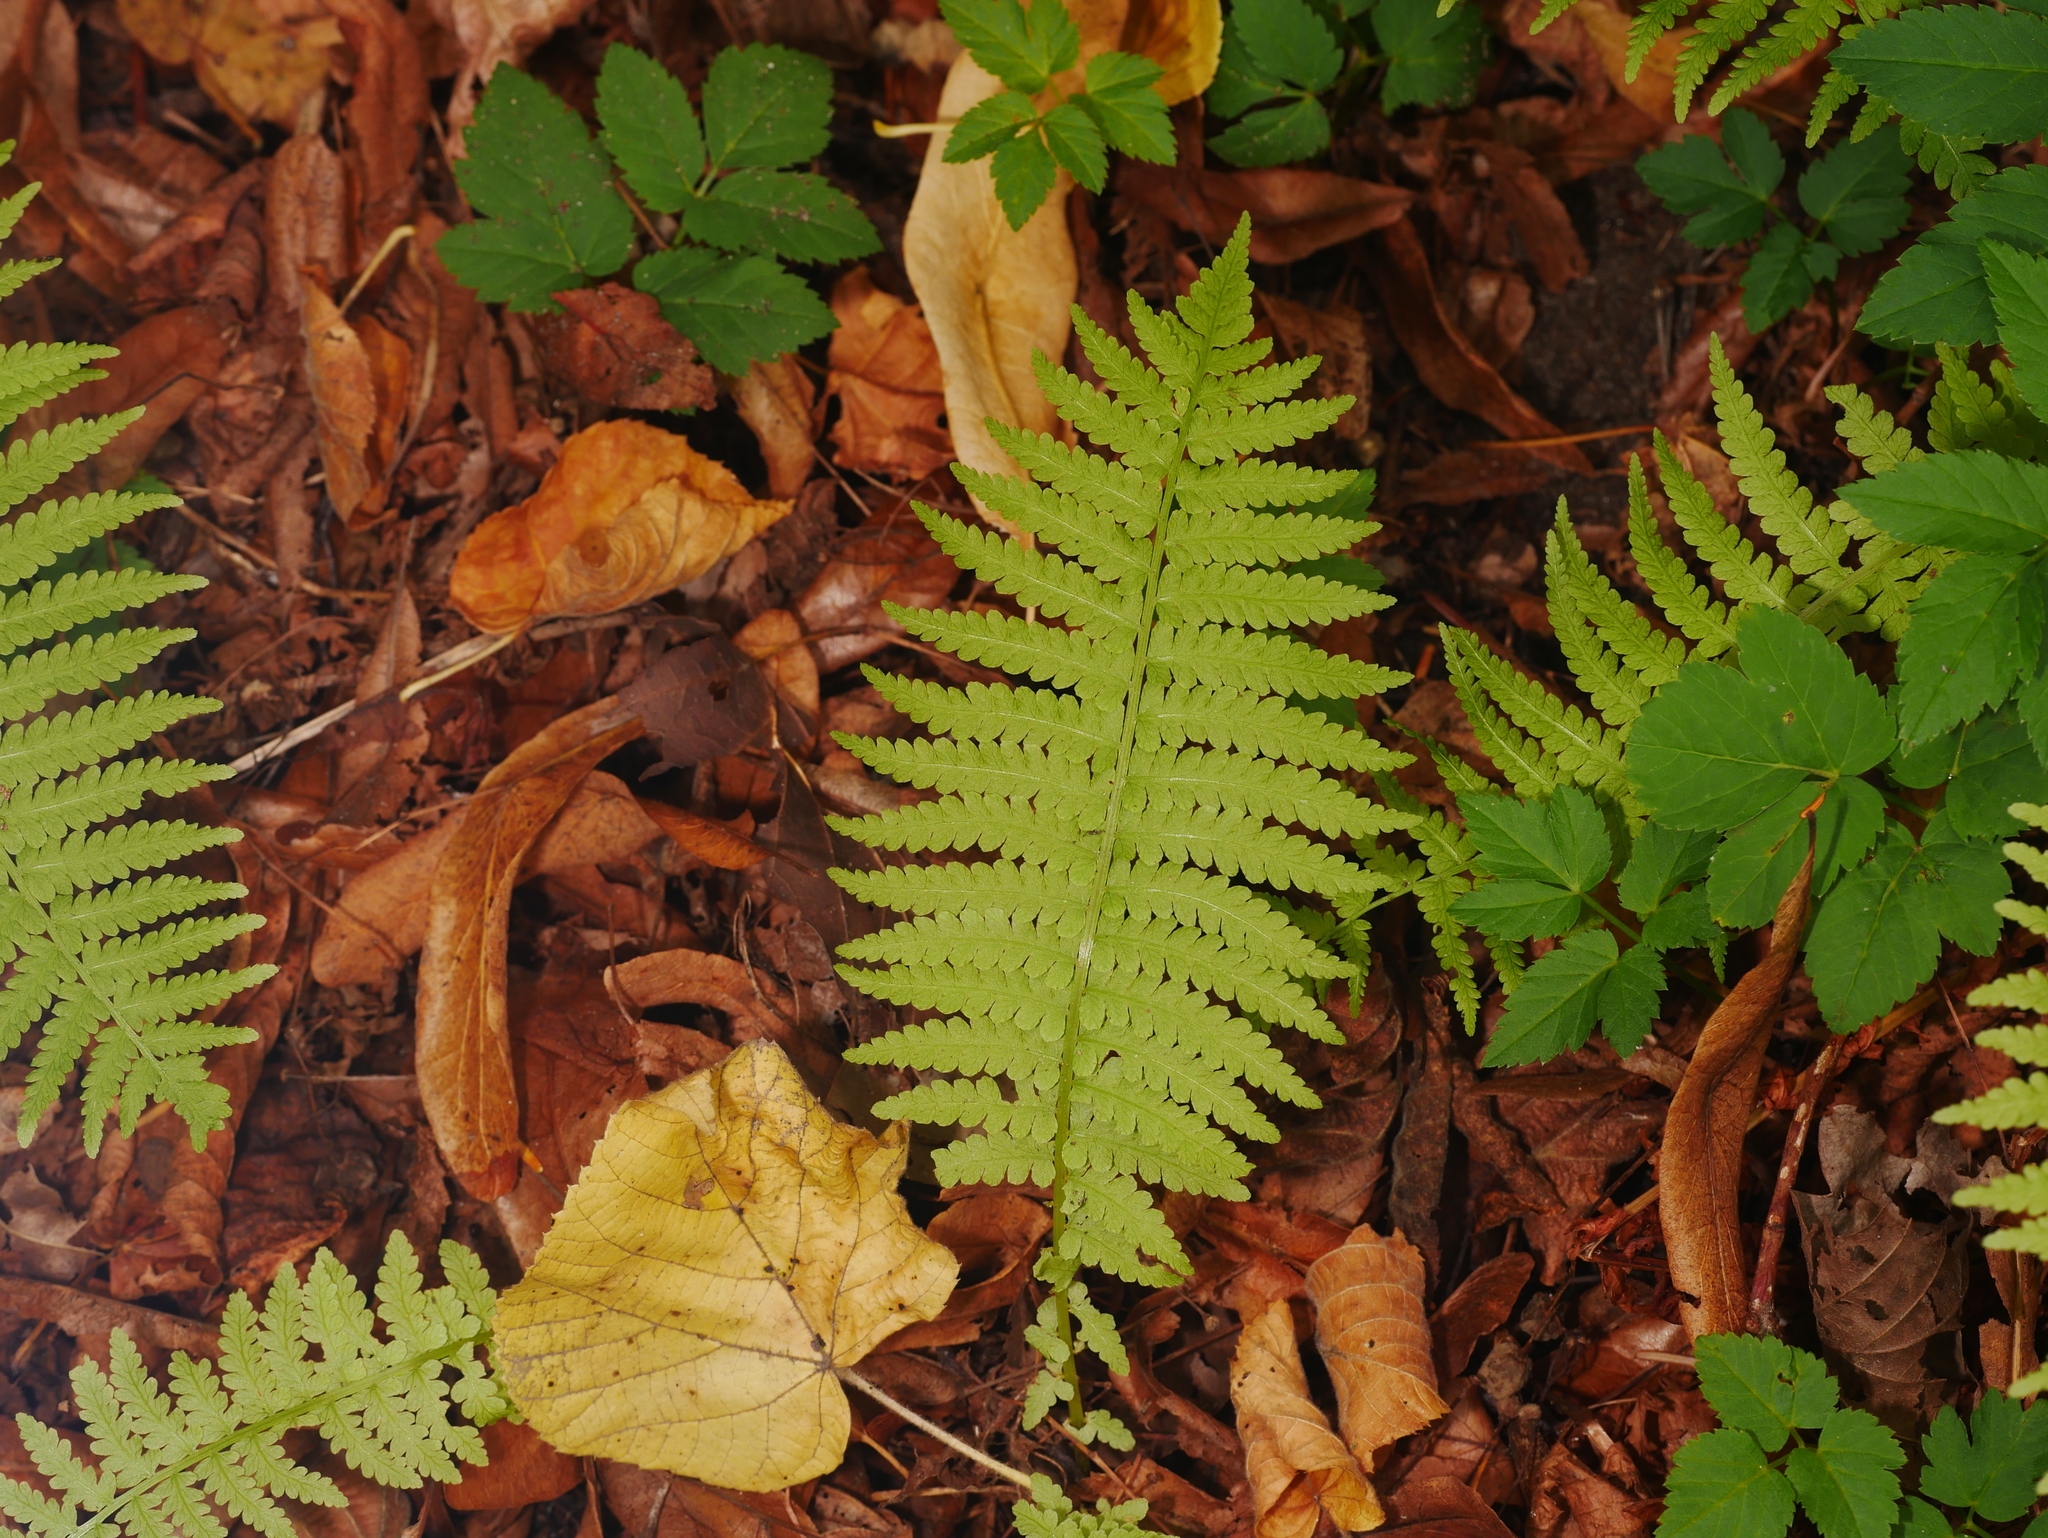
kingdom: Plantae
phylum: Tracheophyta
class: Polypodiopsida
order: Polypodiales
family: Onocleaceae
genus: Matteuccia
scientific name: Matteuccia struthiopteris
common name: Ostrich fern
